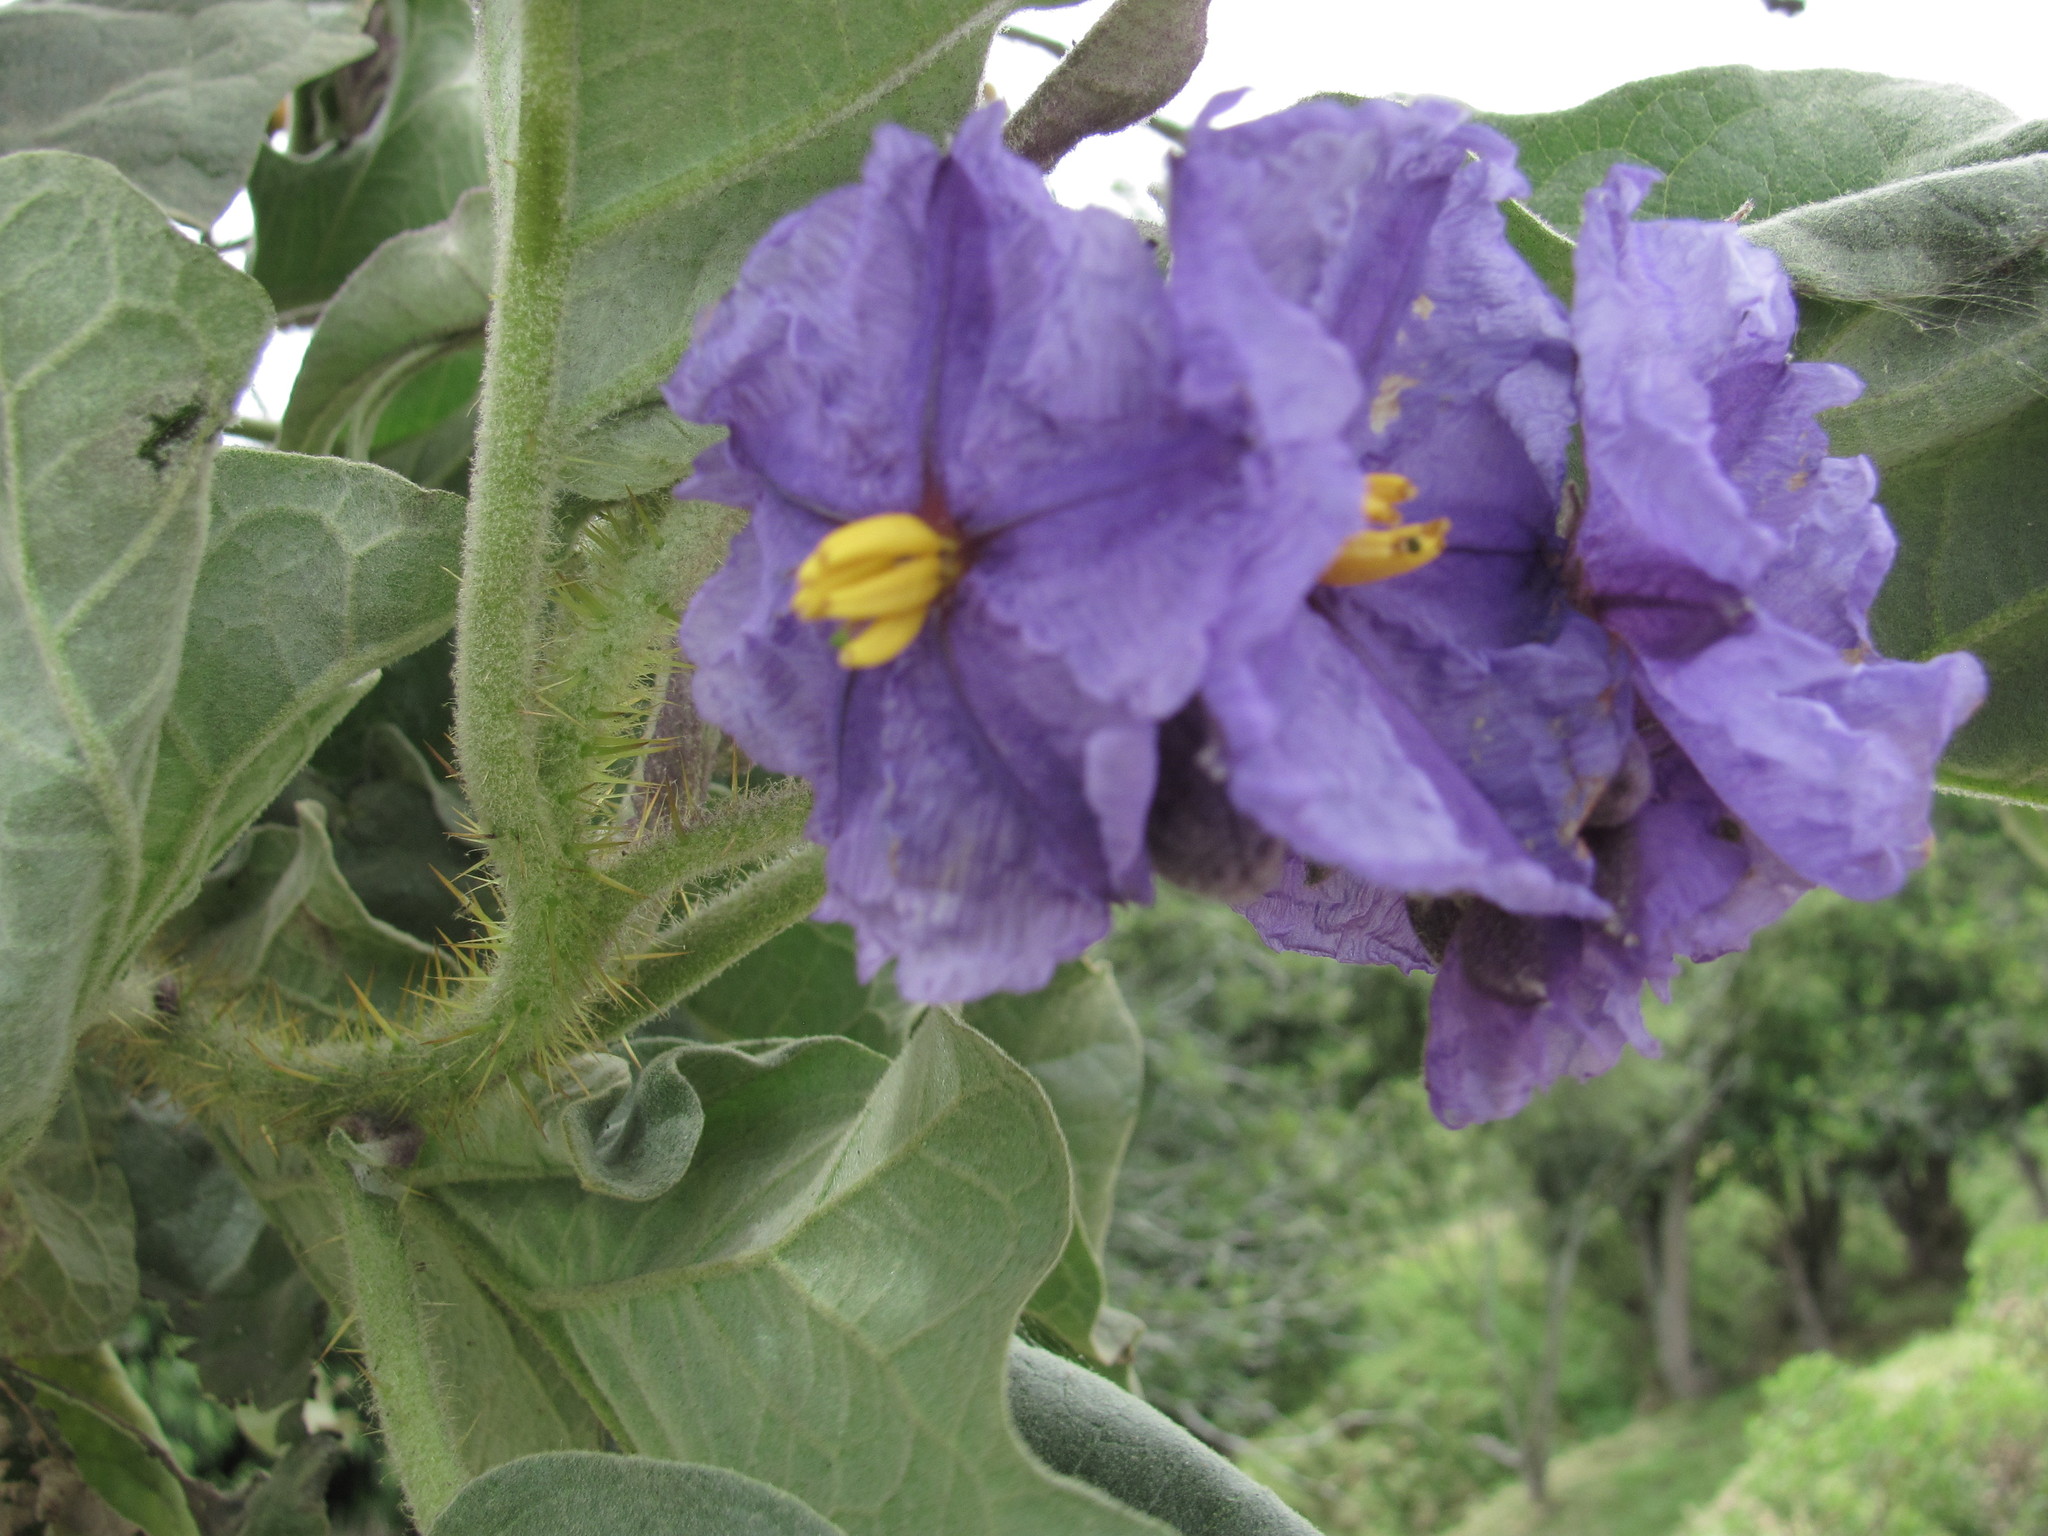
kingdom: Plantae
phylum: Tracheophyta
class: Magnoliopsida
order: Solanales
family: Solanaceae
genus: Solanum
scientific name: Solanum crinitipes
